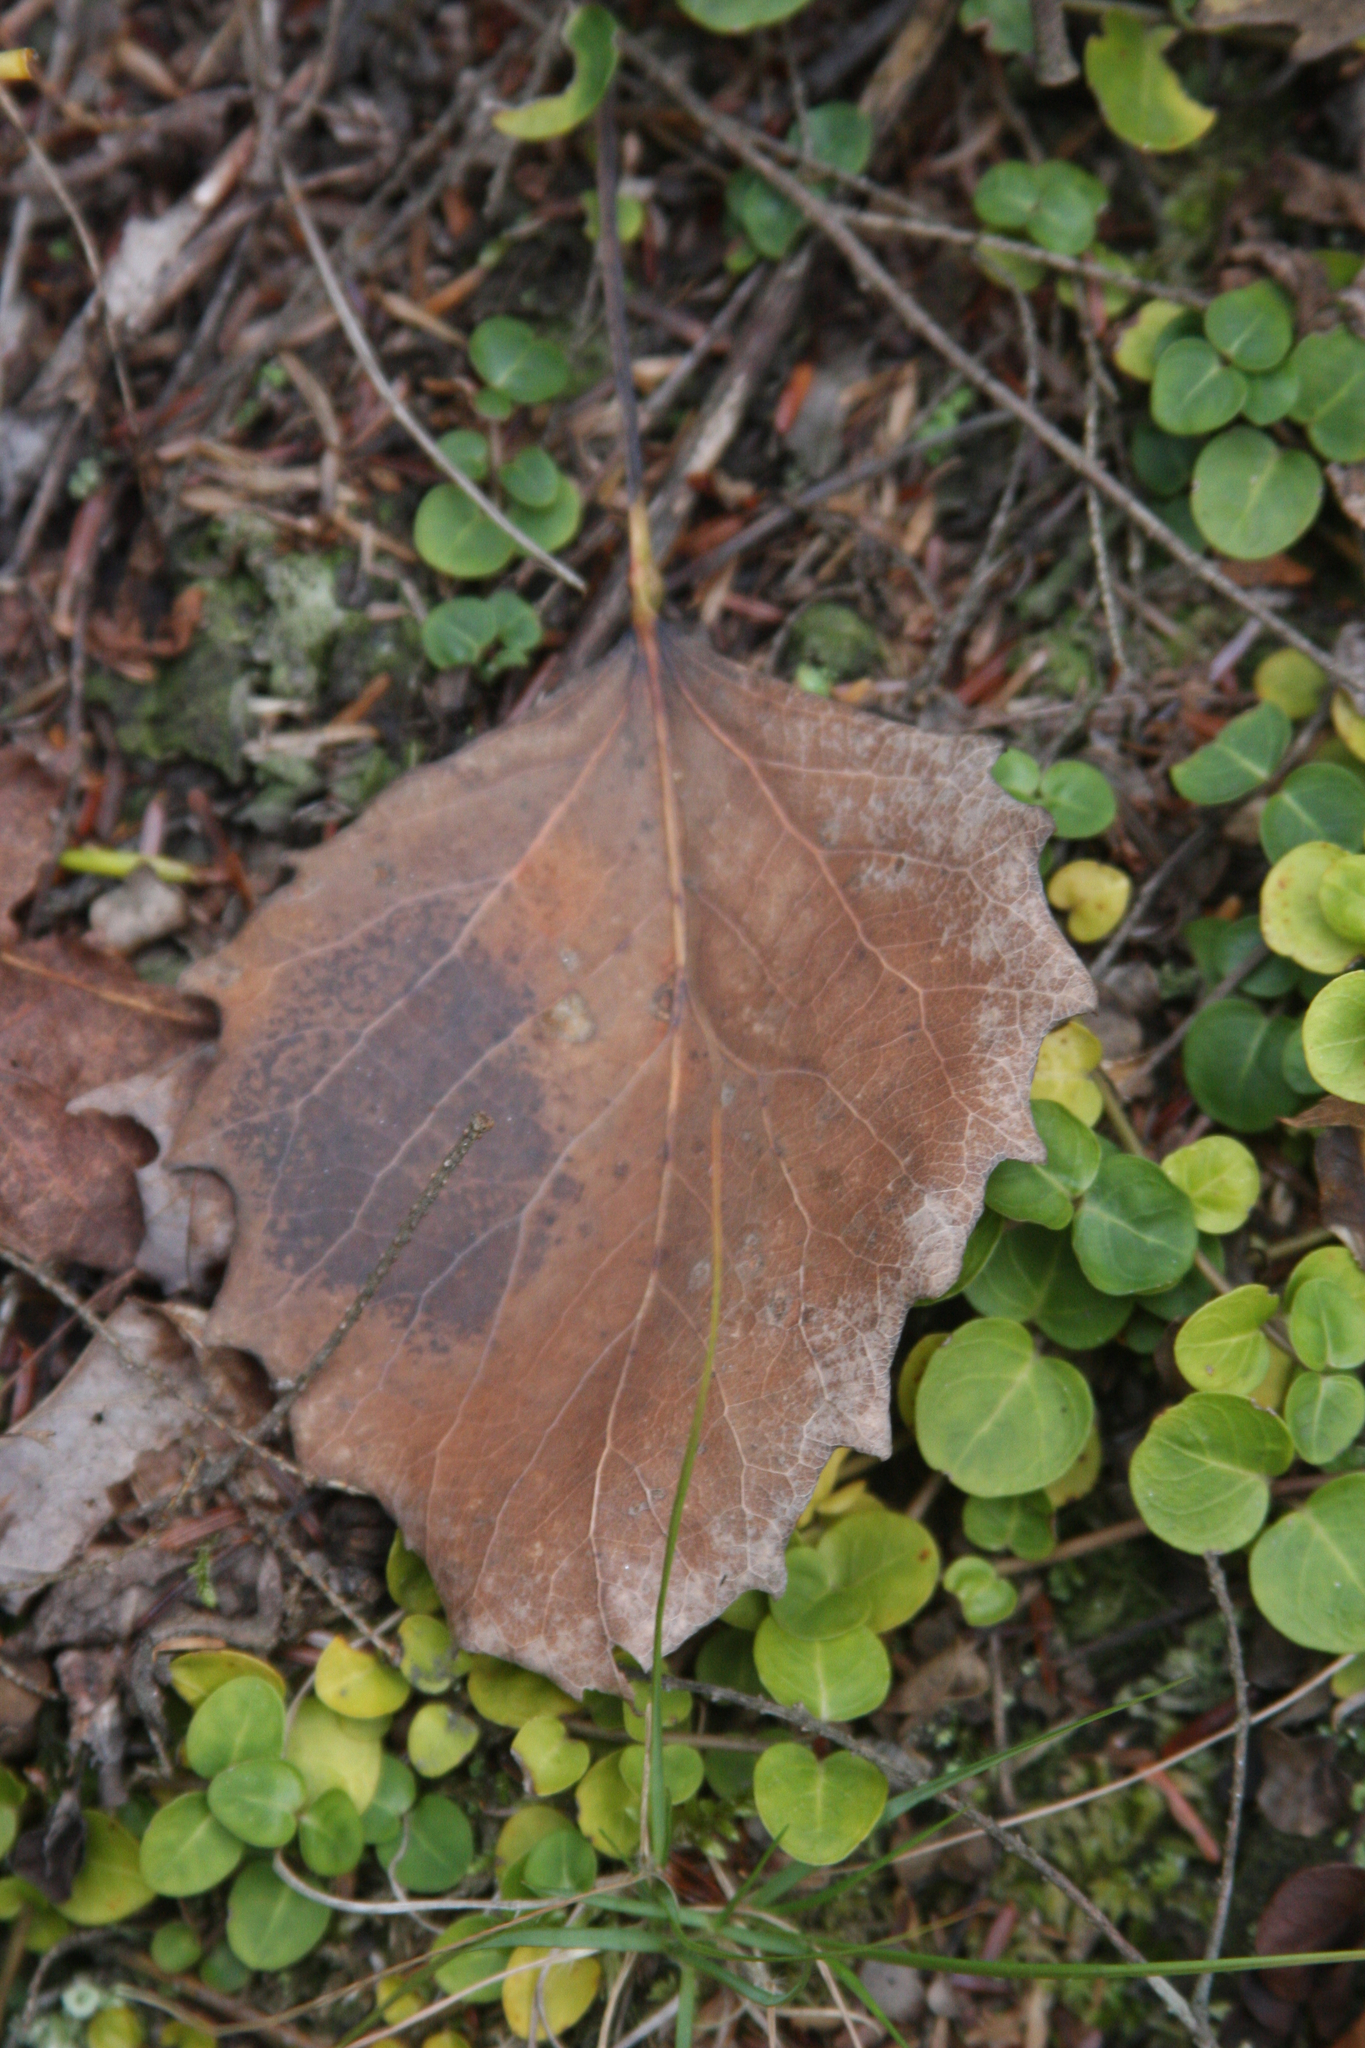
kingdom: Plantae
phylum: Tracheophyta
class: Magnoliopsida
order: Malpighiales
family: Salicaceae
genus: Populus
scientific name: Populus grandidentata
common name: Bigtooth aspen
